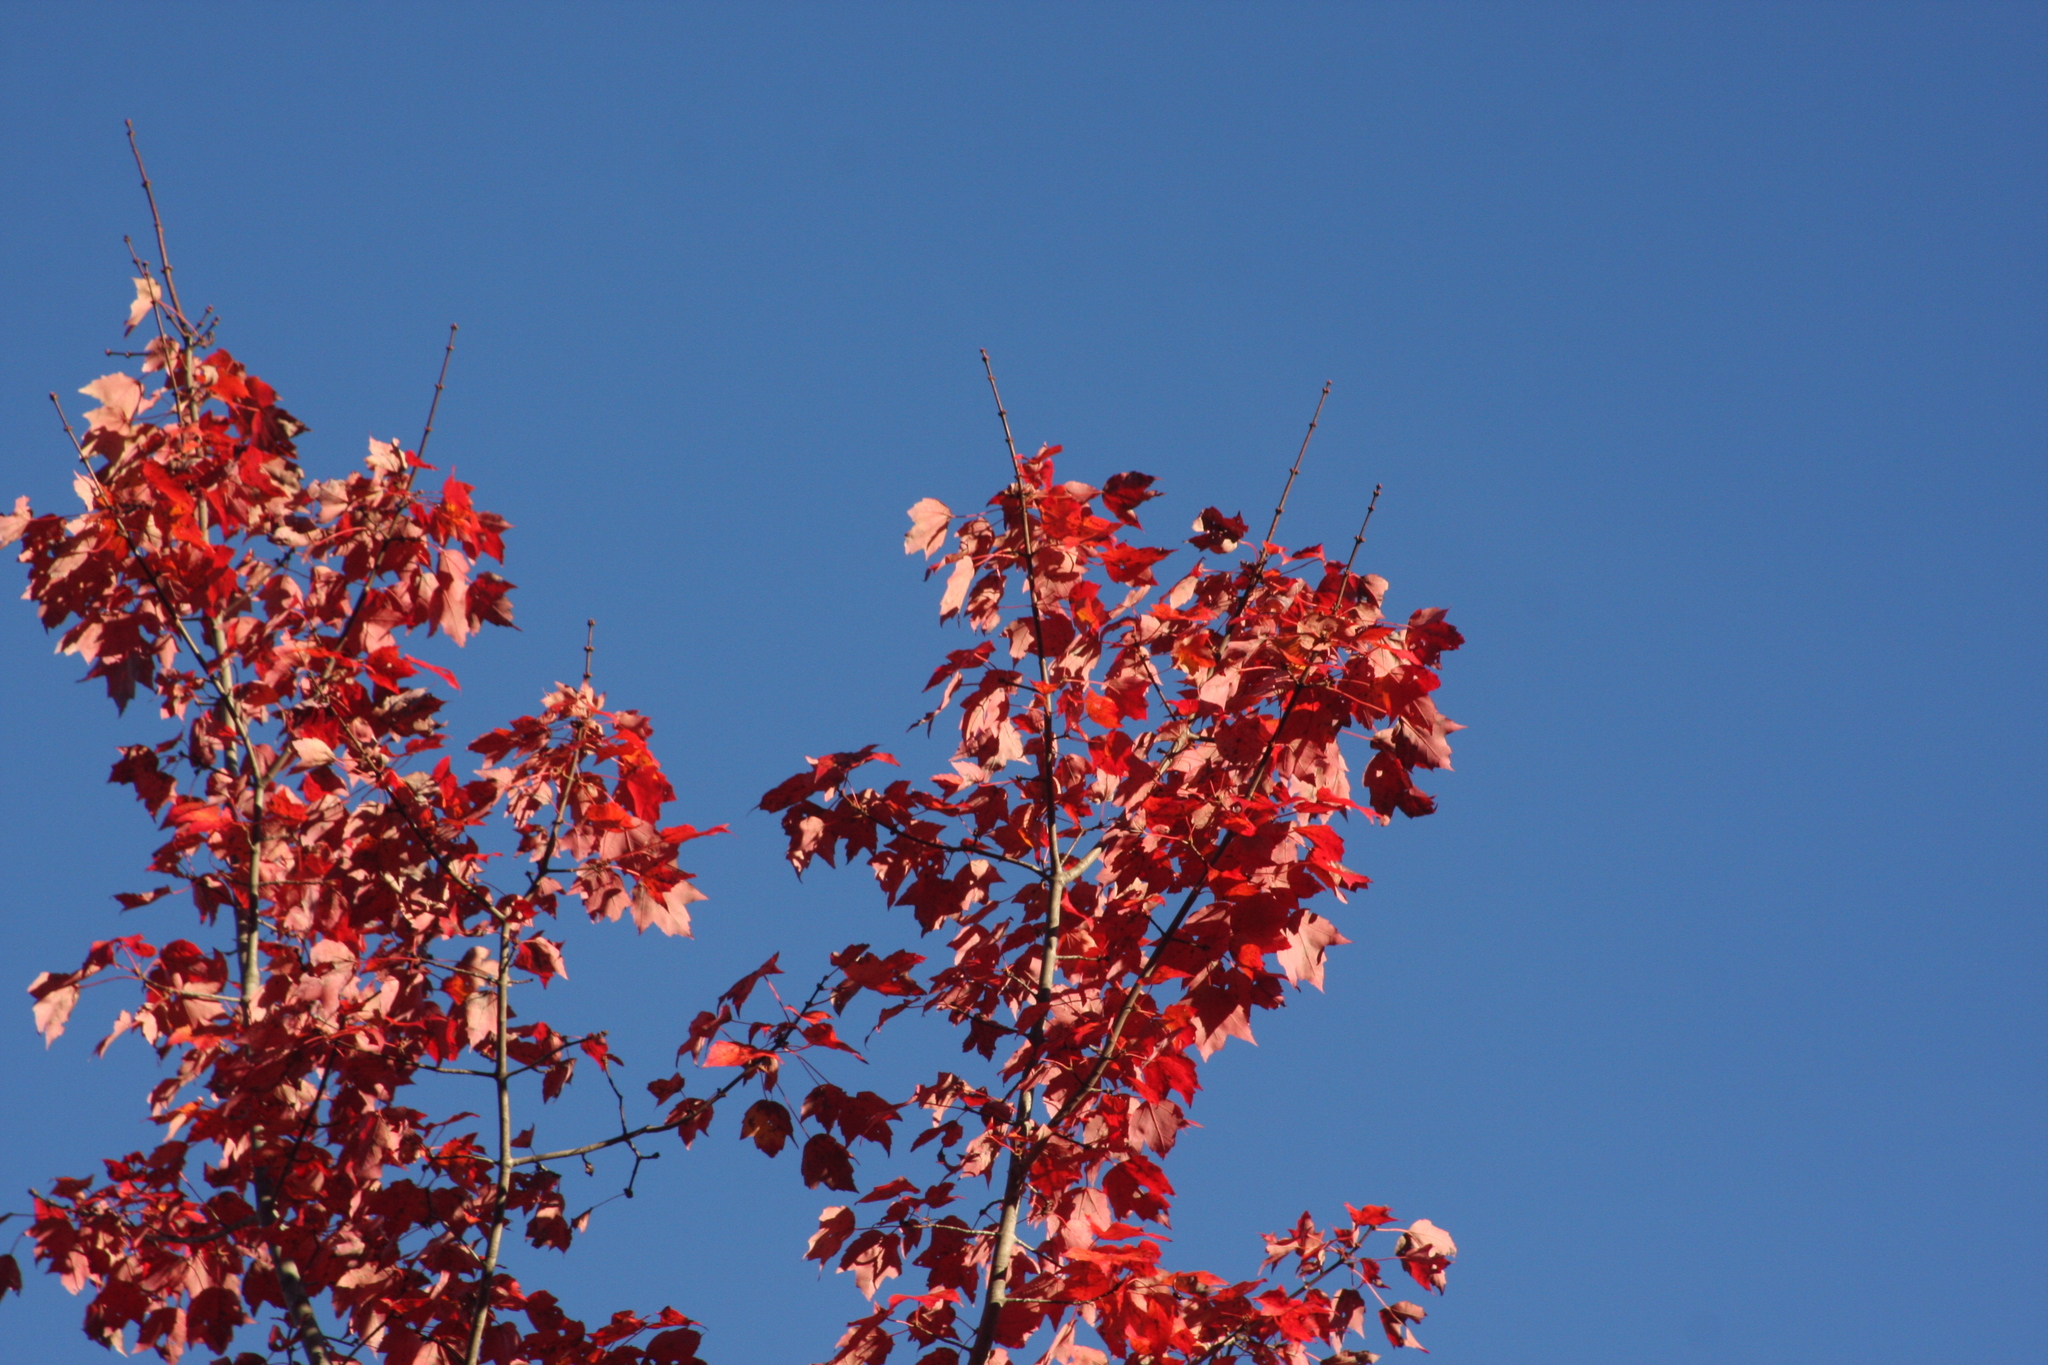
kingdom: Plantae
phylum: Tracheophyta
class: Magnoliopsida
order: Sapindales
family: Sapindaceae
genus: Acer
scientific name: Acer rubrum
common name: Red maple
